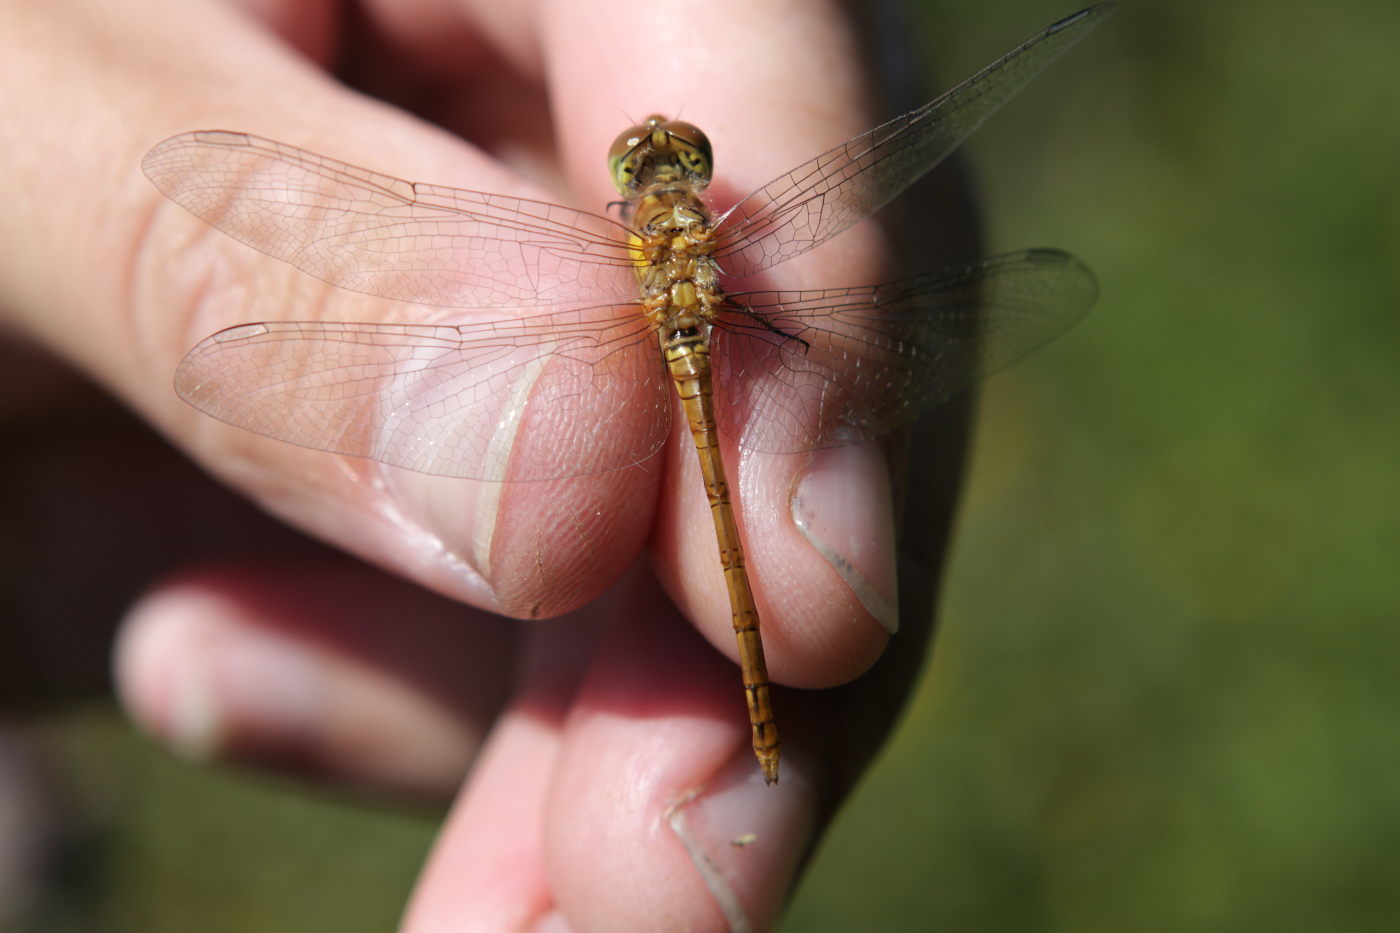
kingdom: Animalia
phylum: Arthropoda
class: Insecta
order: Odonata
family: Libellulidae
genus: Sympetrum
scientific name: Sympetrum striolatum
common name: Common darter
